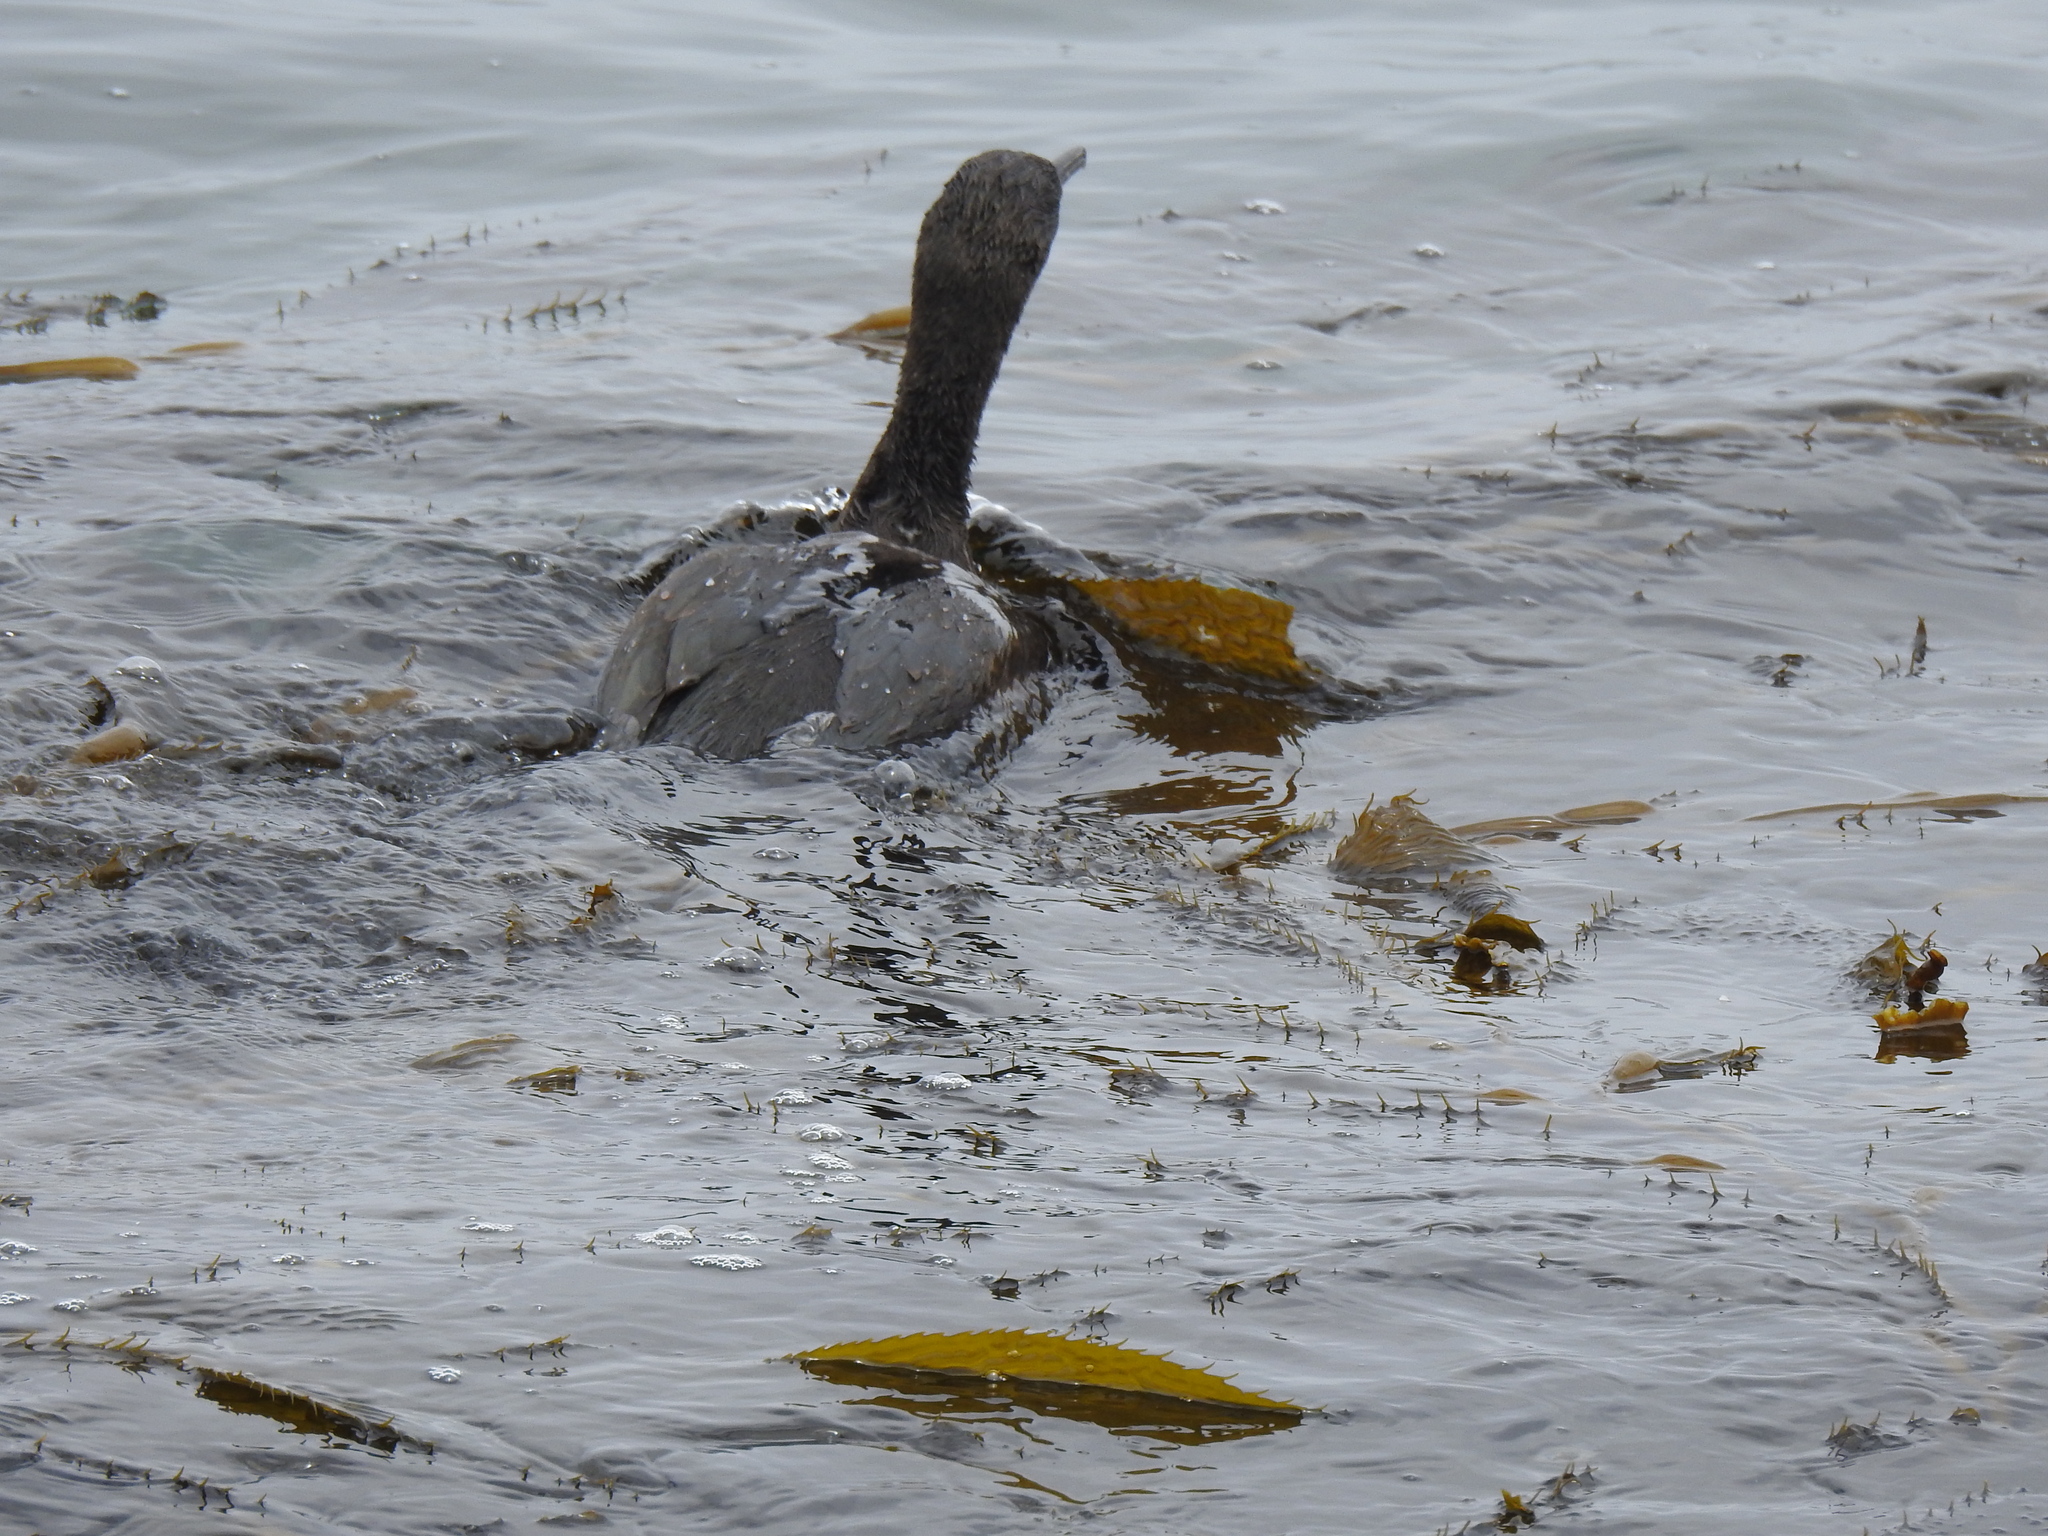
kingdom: Animalia
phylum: Chordata
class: Aves
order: Suliformes
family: Phalacrocoracidae
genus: Urile
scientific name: Urile penicillatus
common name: Brandt's cormorant
